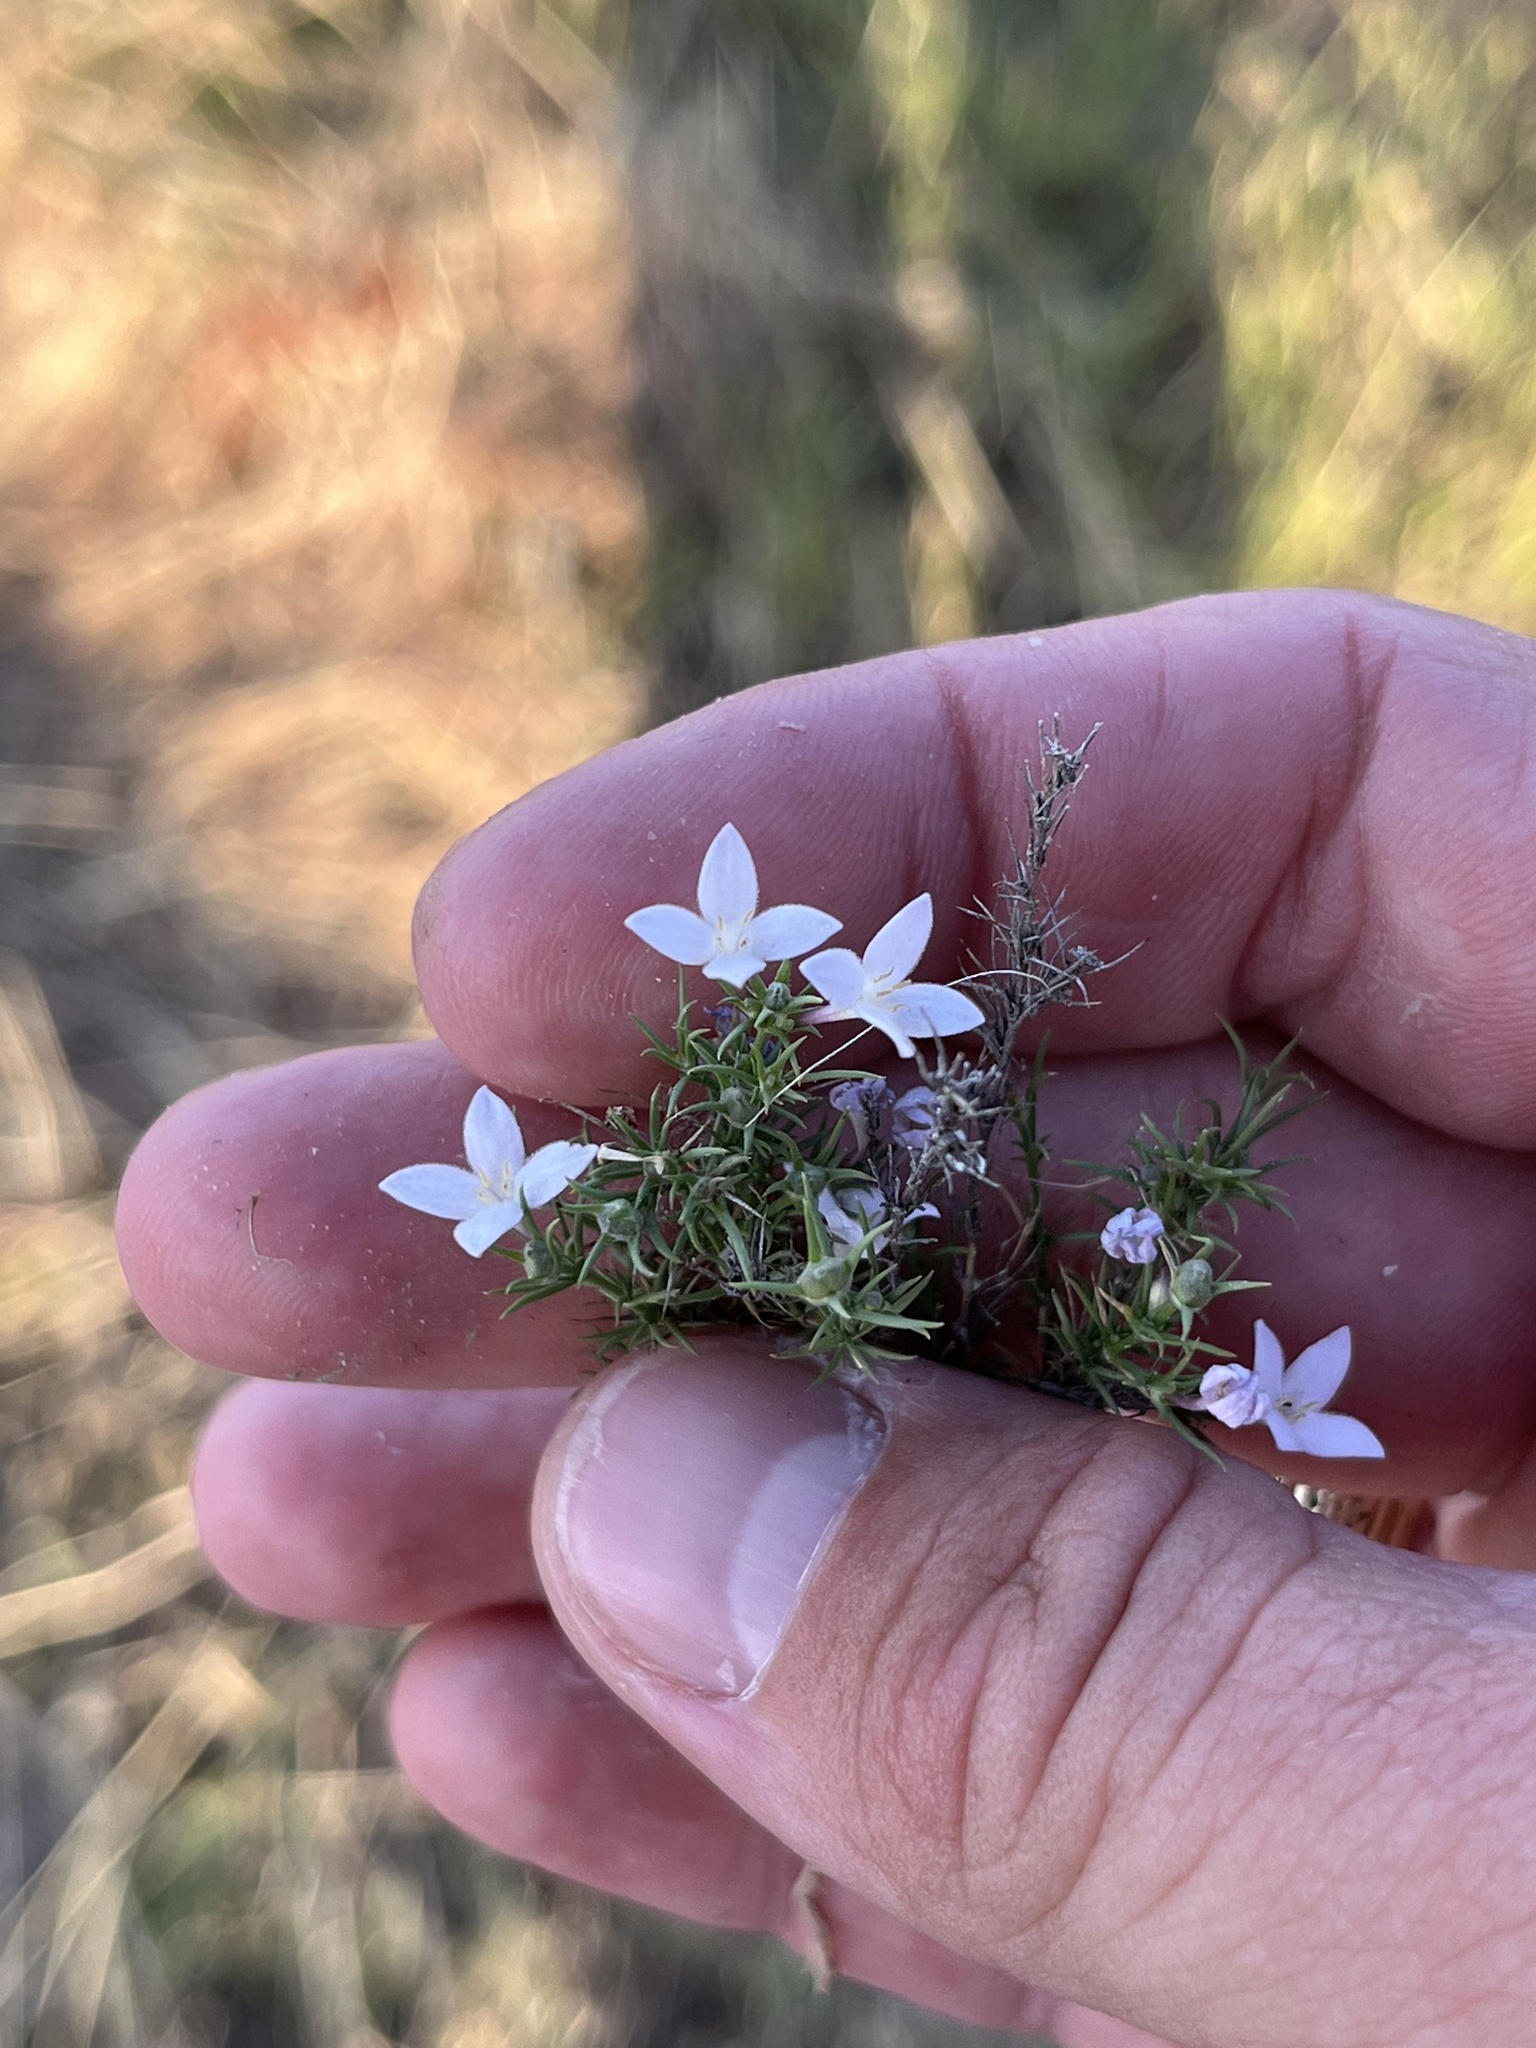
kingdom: Plantae
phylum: Tracheophyta
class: Magnoliopsida
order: Gentianales
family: Rubiaceae
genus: Houstonia
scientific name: Houstonia acerosa
